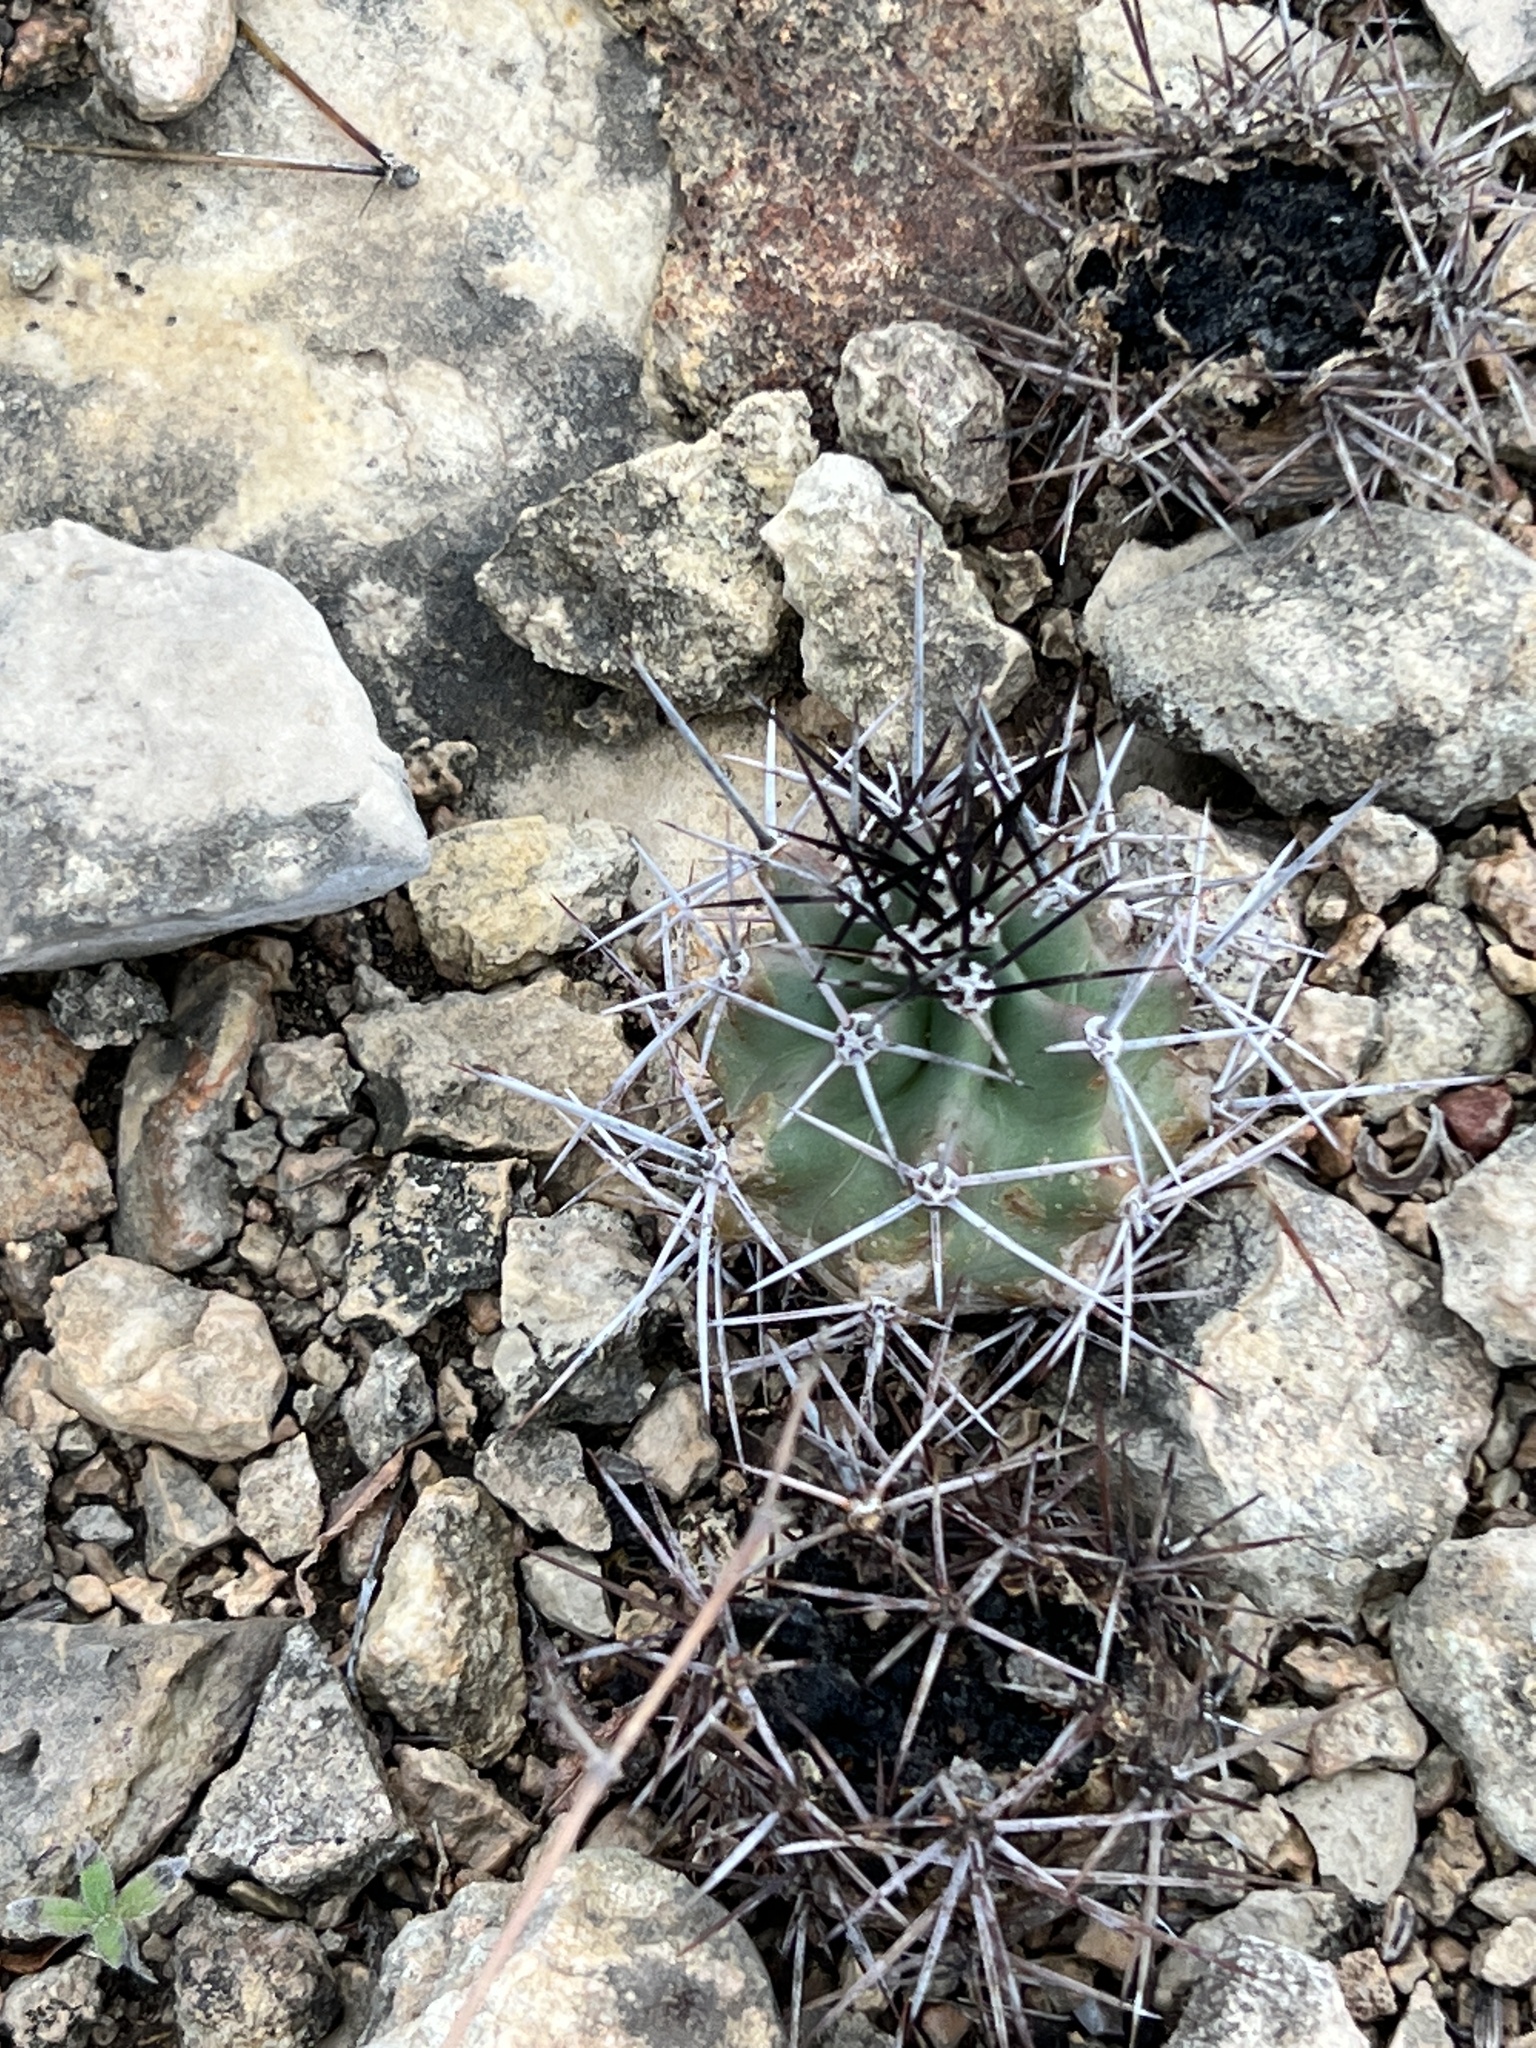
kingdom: Plantae
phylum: Tracheophyta
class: Magnoliopsida
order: Caryophyllales
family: Cactaceae
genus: Echinocereus
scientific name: Echinocereus coccineus
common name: Scarlet hedgehog cactus
